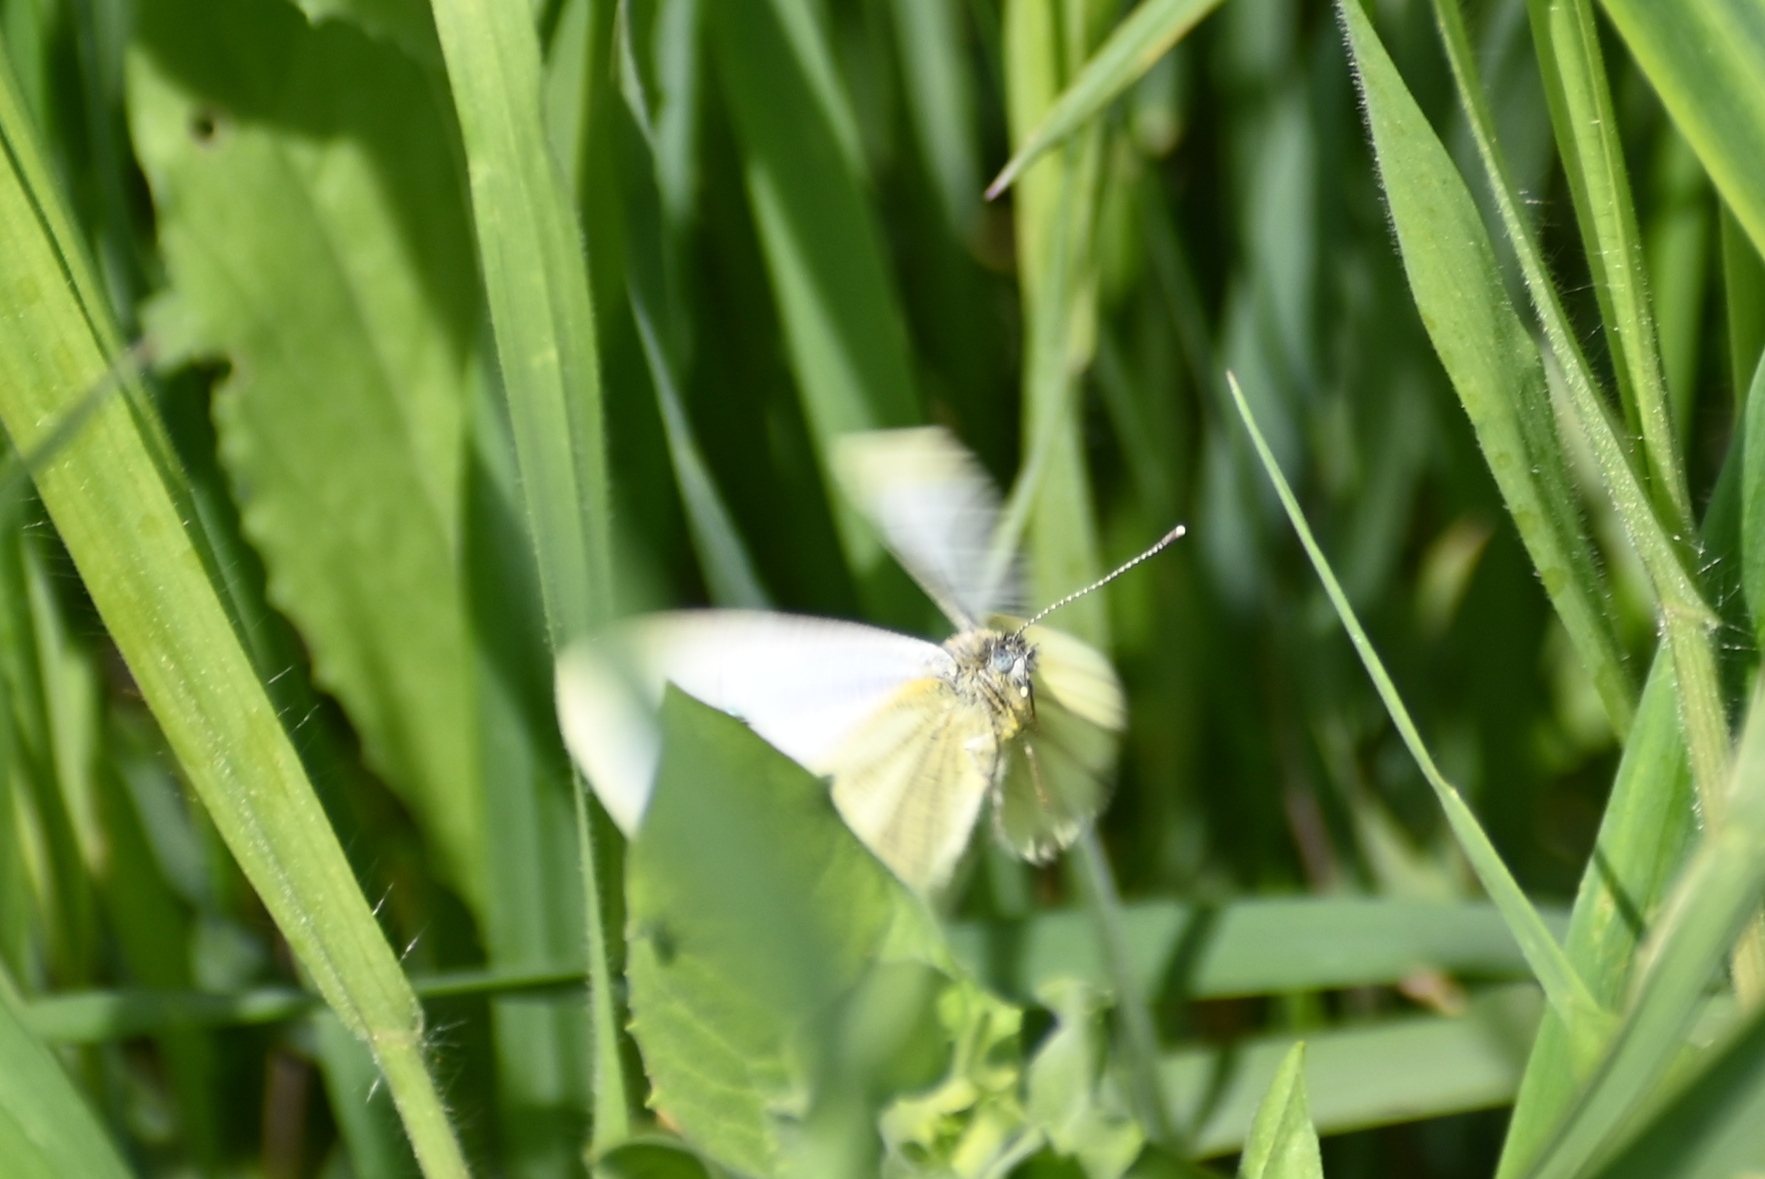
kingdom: Animalia
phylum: Arthropoda
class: Insecta
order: Lepidoptera
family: Pieridae
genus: Pieris
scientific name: Pieris napi
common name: Green-veined white
